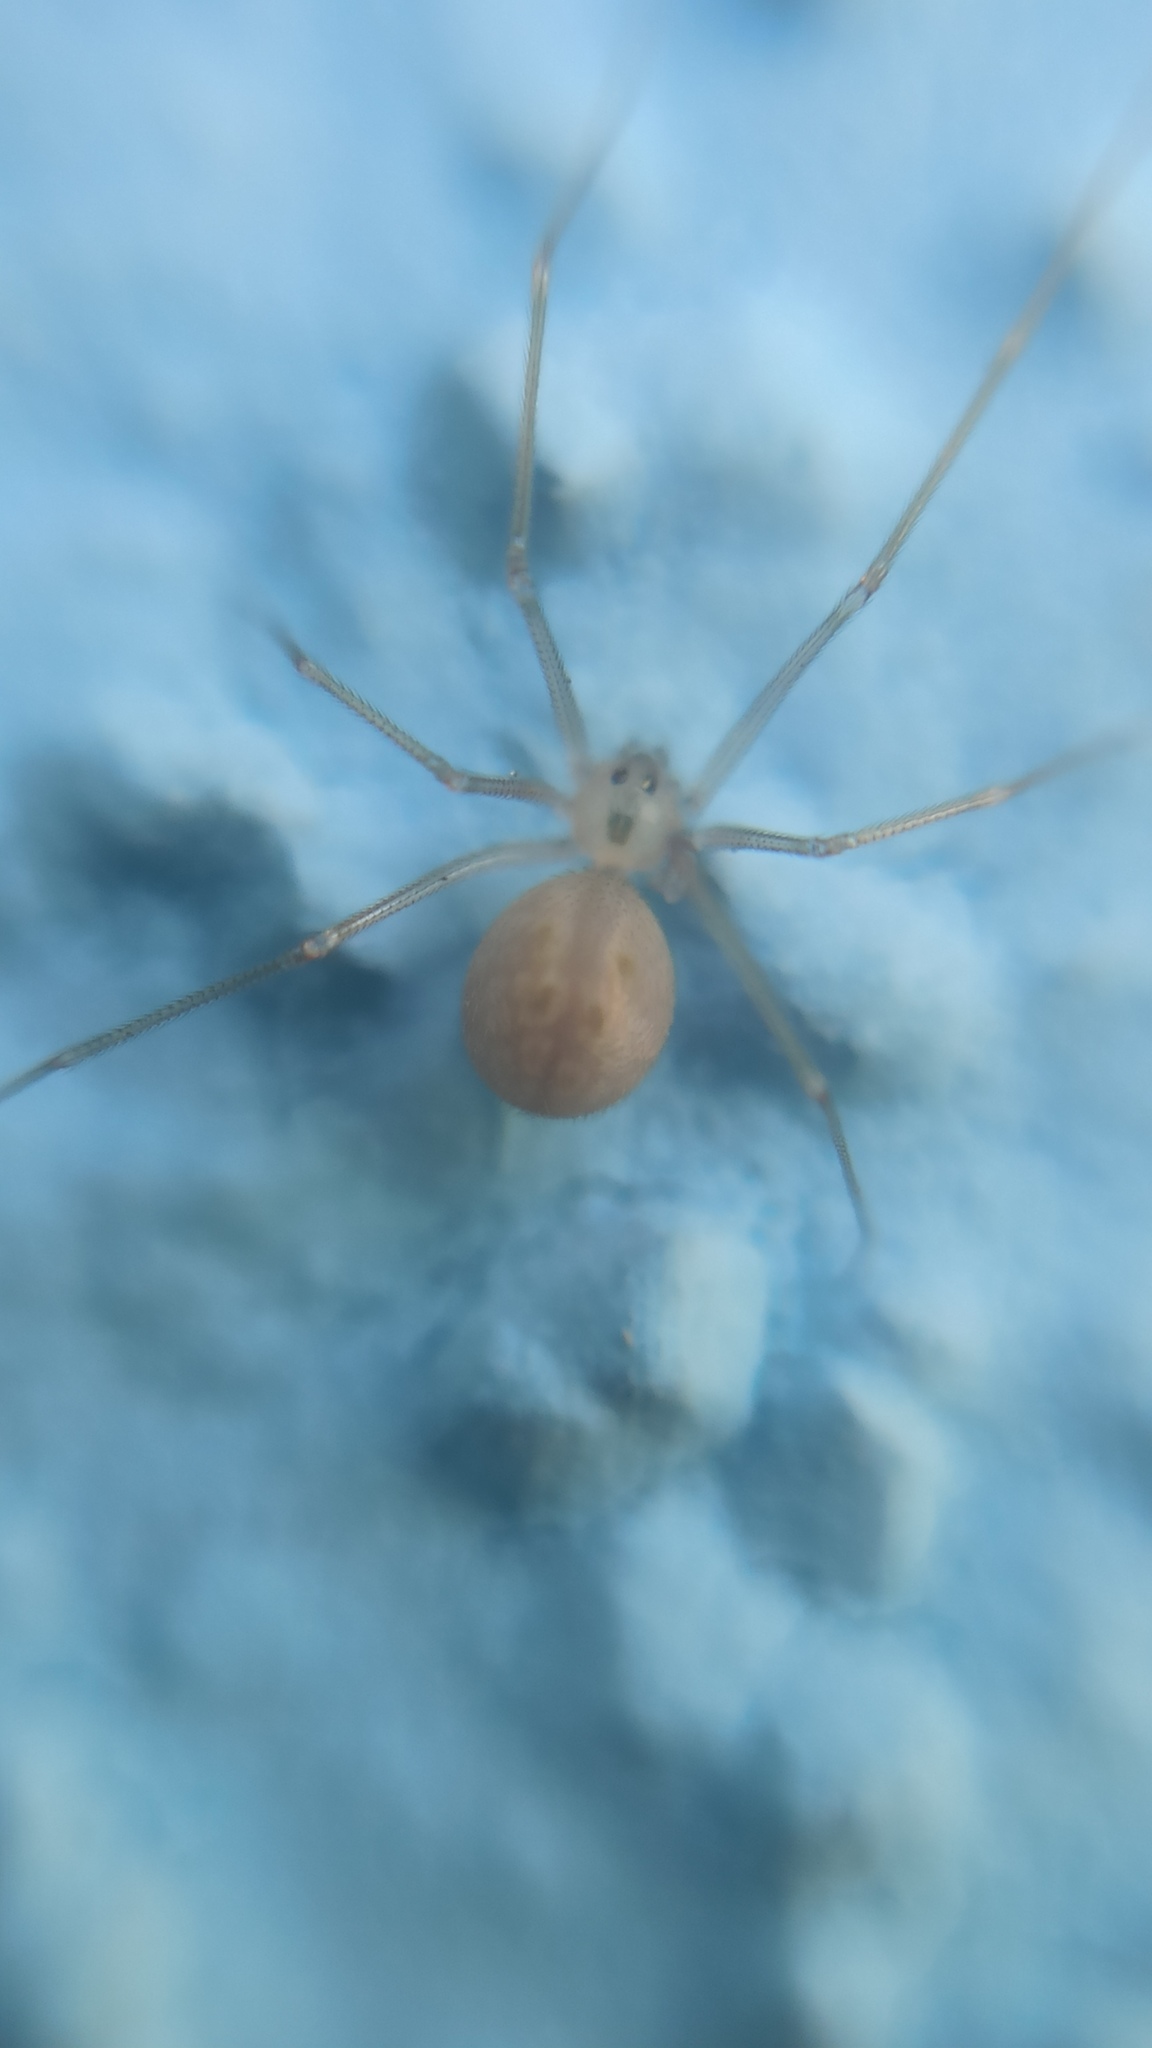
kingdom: Animalia
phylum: Arthropoda
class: Arachnida
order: Araneae
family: Pholcidae
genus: Spermophora
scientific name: Spermophora senoculata
